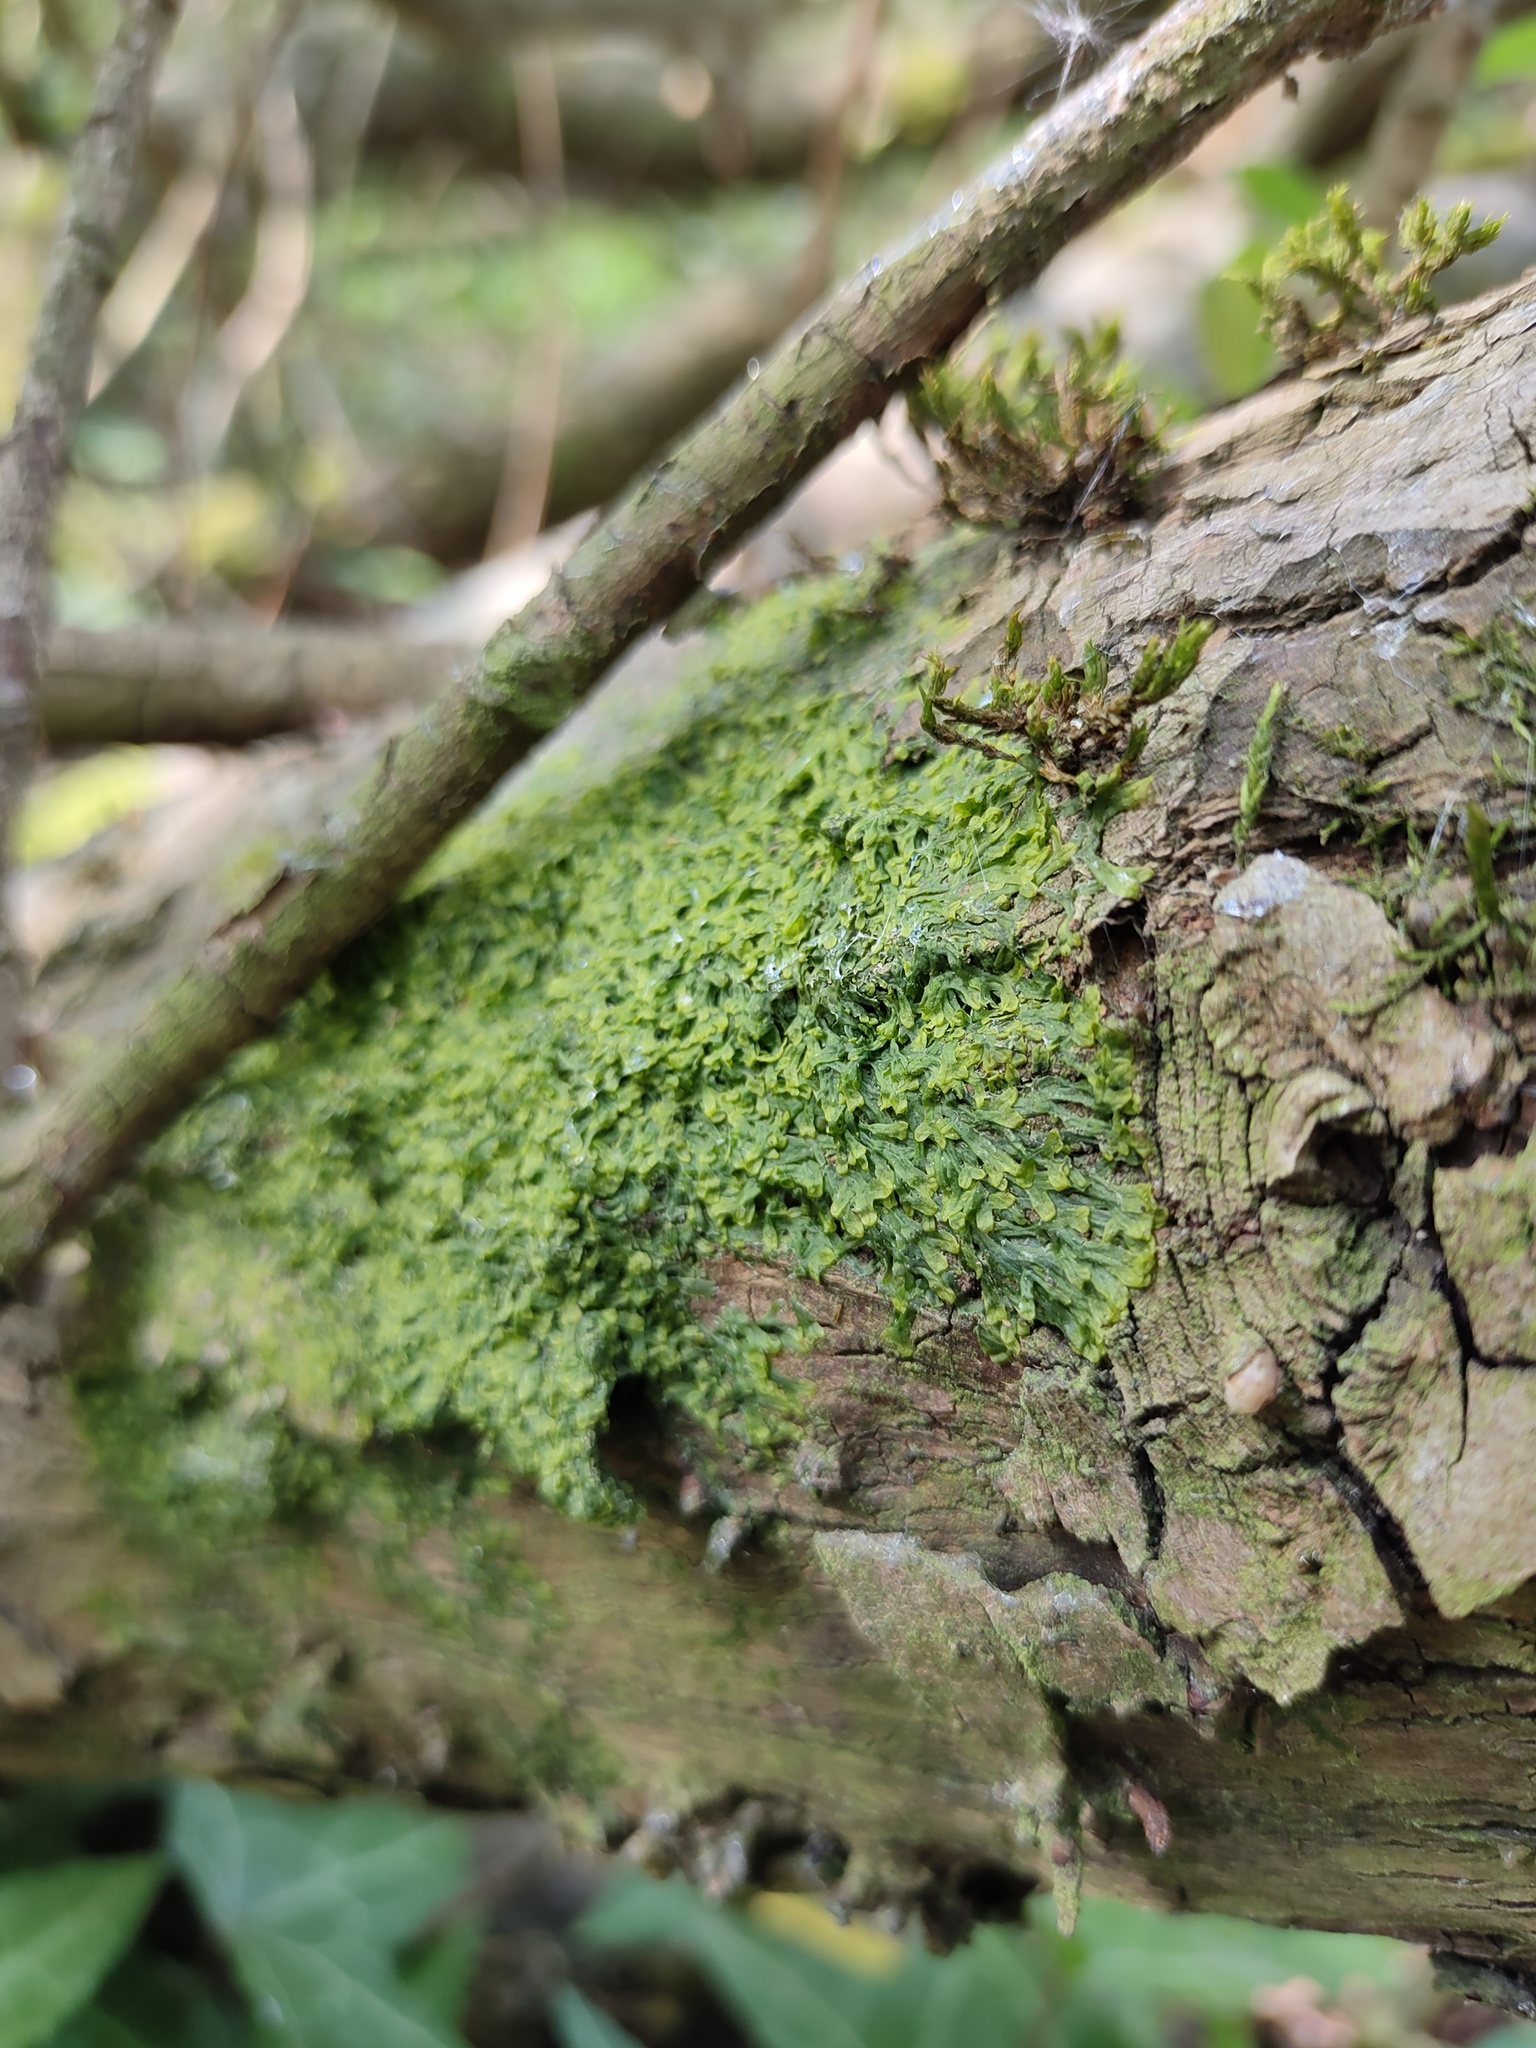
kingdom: Plantae
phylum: Marchantiophyta
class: Jungermanniopsida
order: Metzgeriales
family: Metzgeriaceae
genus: Metzgeria
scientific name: Metzgeria furcata
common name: Forked veilwort
